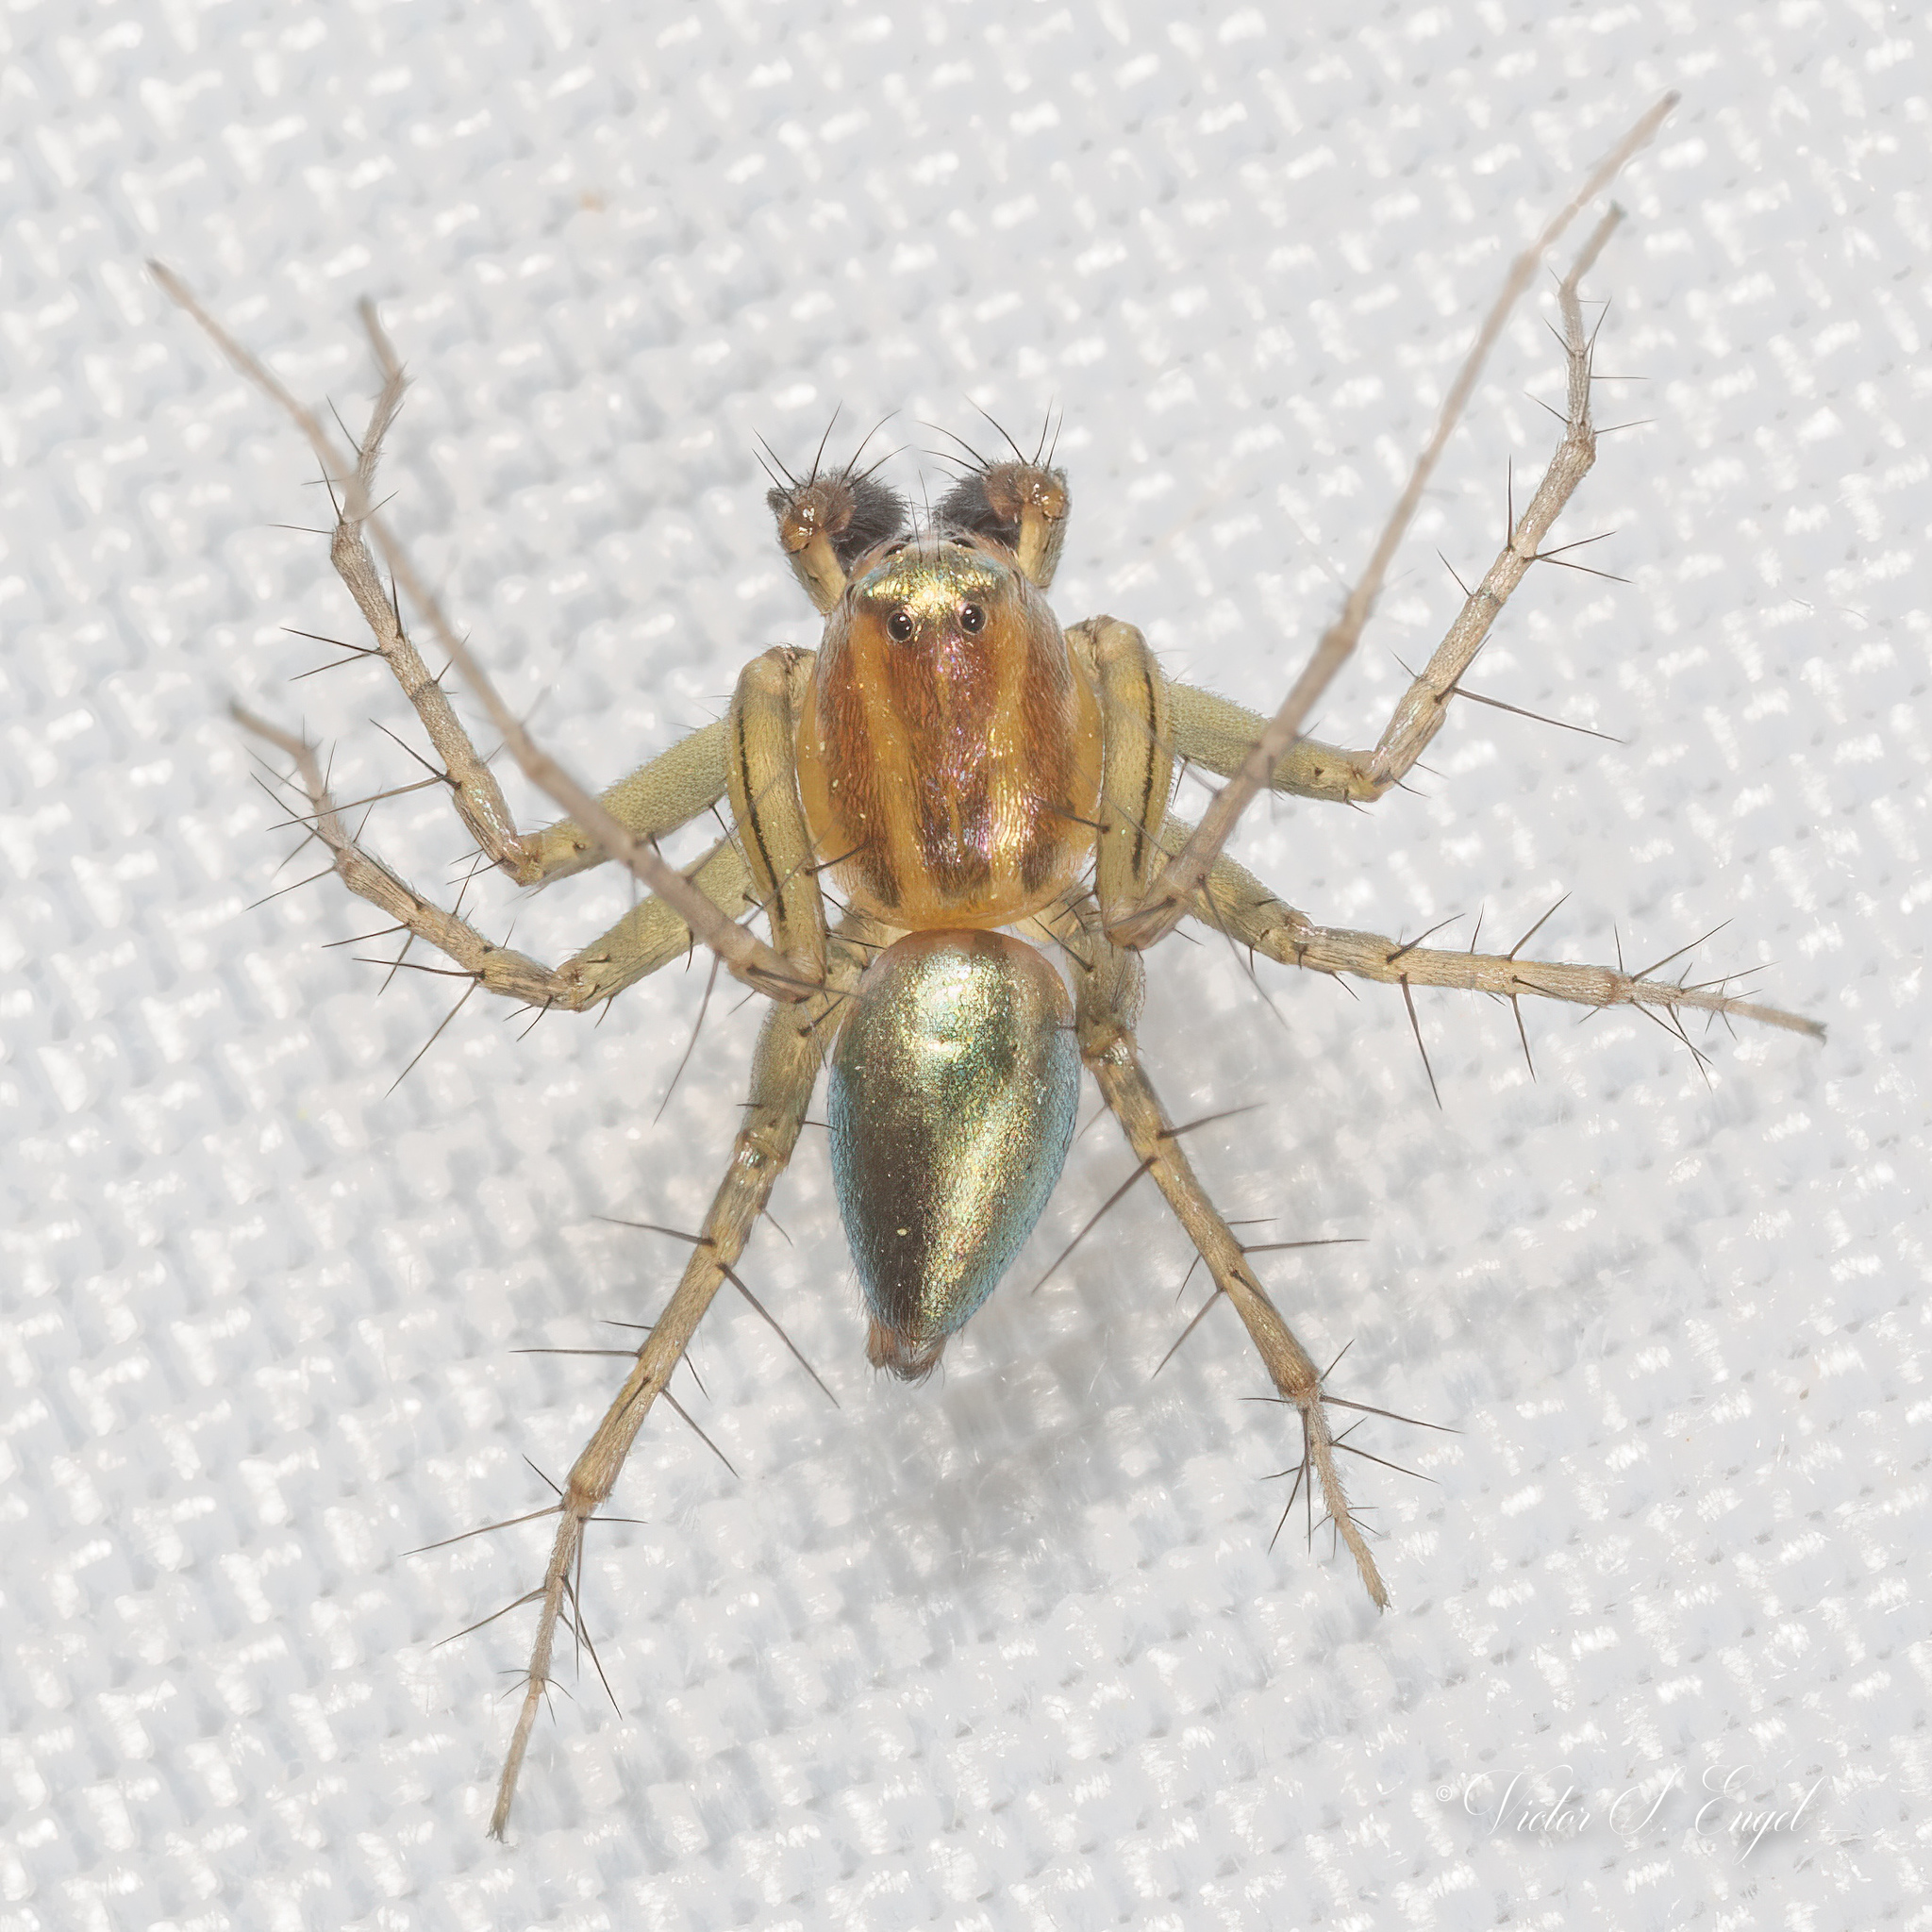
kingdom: Animalia
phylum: Arthropoda
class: Arachnida
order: Araneae
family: Oxyopidae
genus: Oxyopes
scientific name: Oxyopes salticus
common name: Lynx spiders
